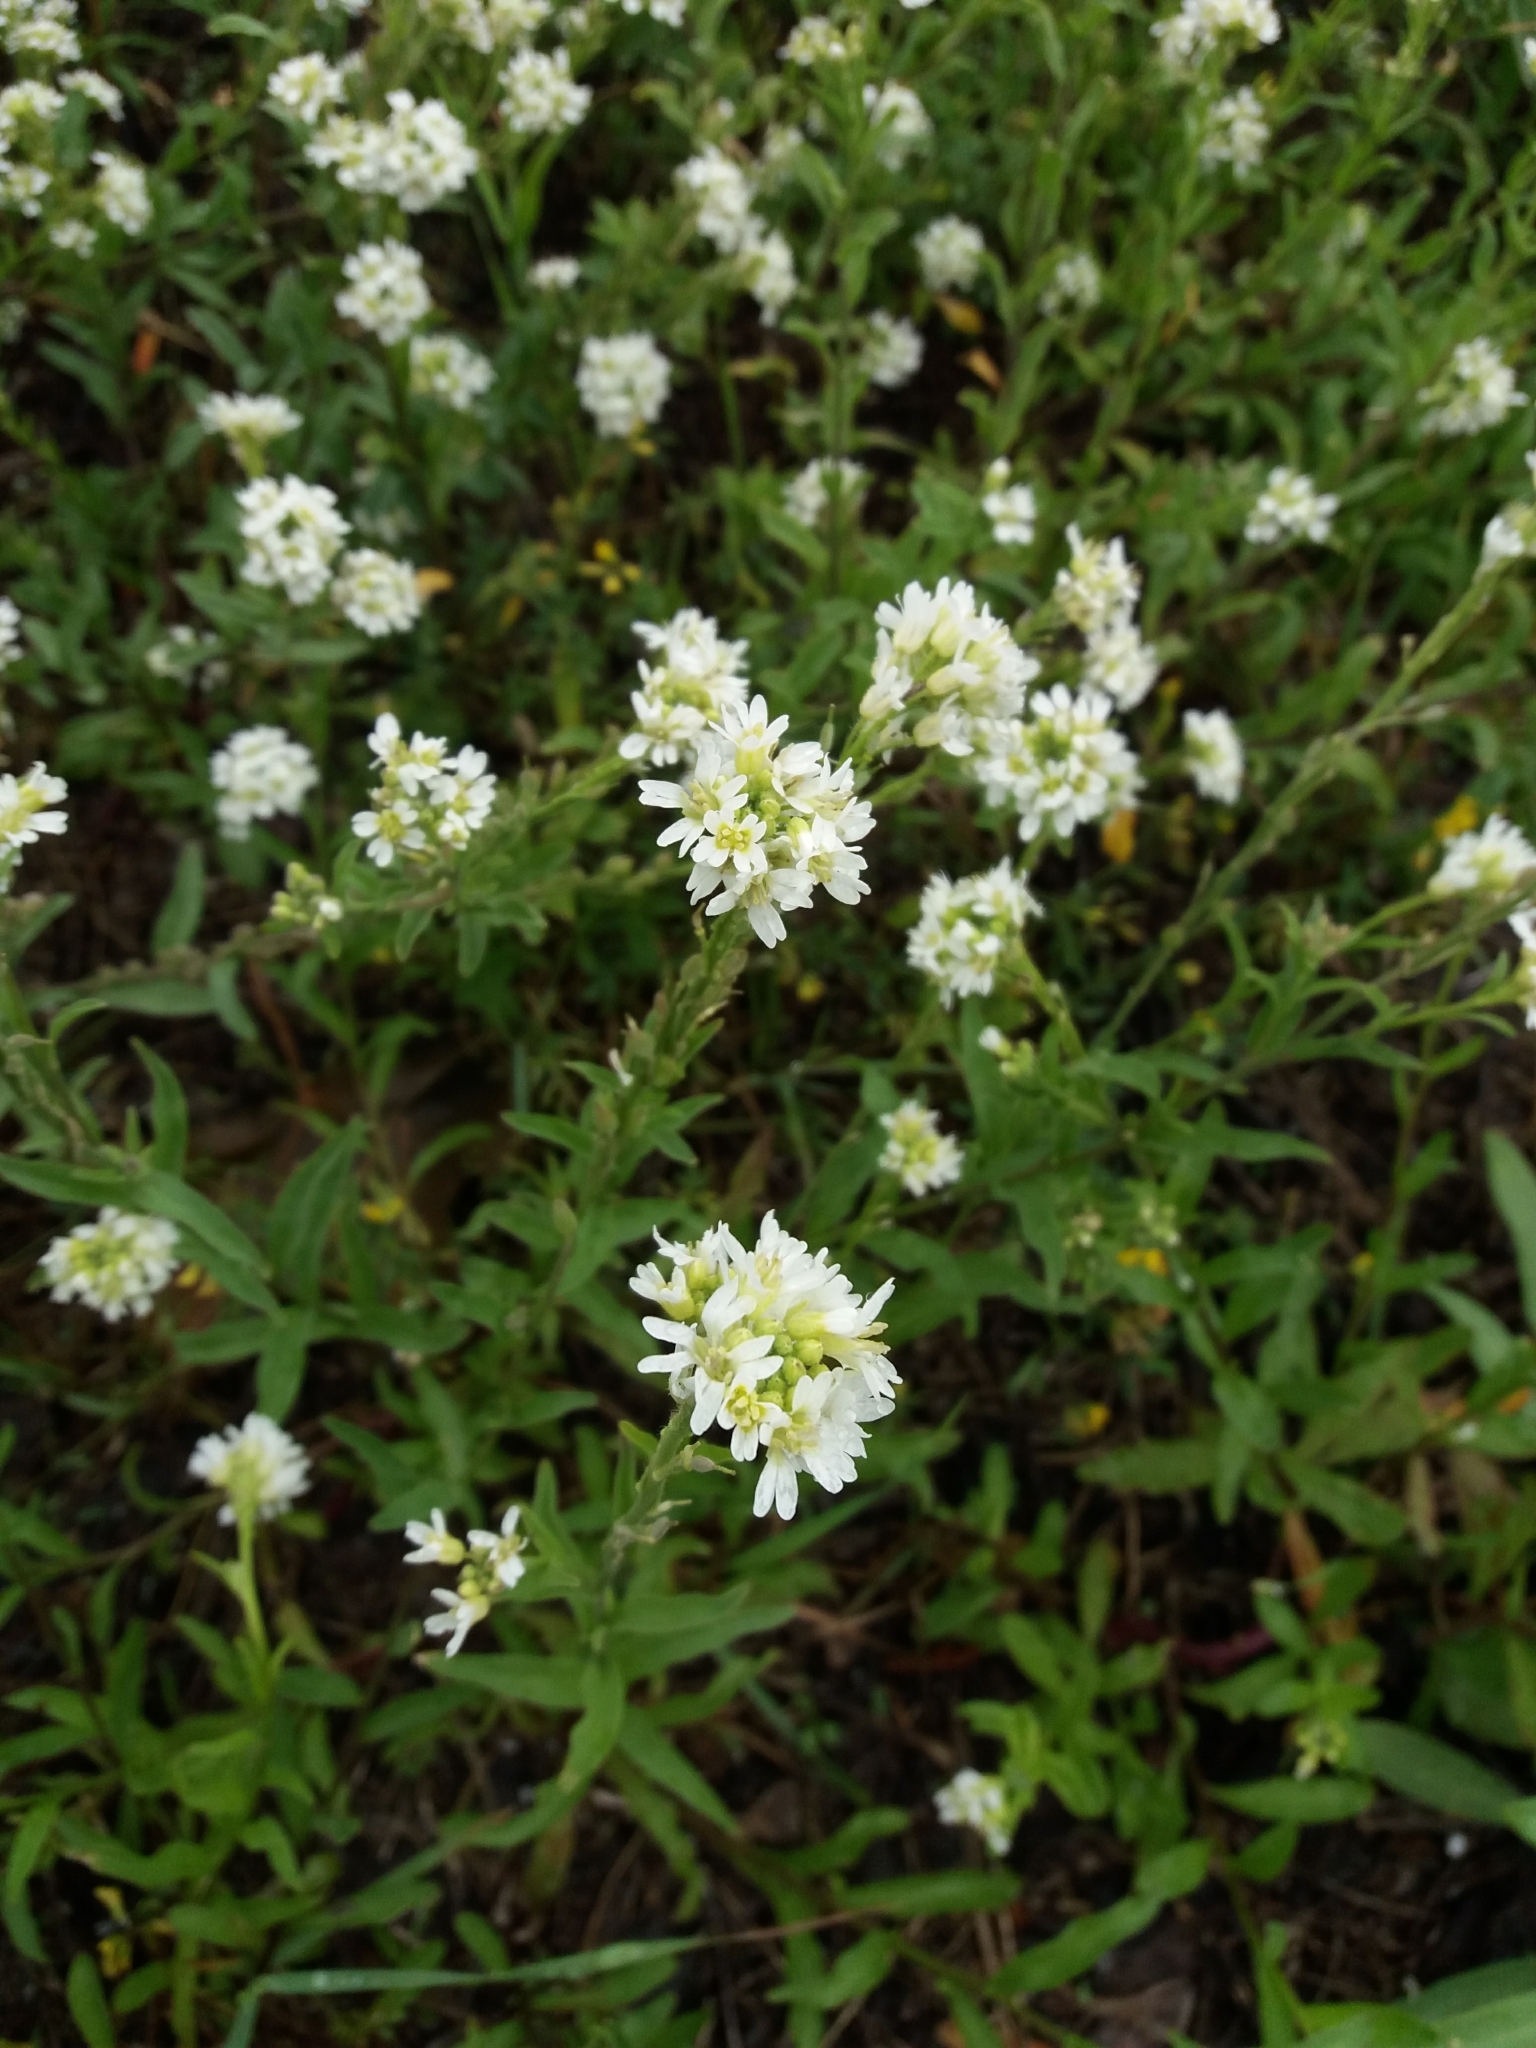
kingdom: Plantae
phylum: Tracheophyta
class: Magnoliopsida
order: Brassicales
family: Brassicaceae
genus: Berteroa
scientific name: Berteroa incana
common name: Hoary alison
